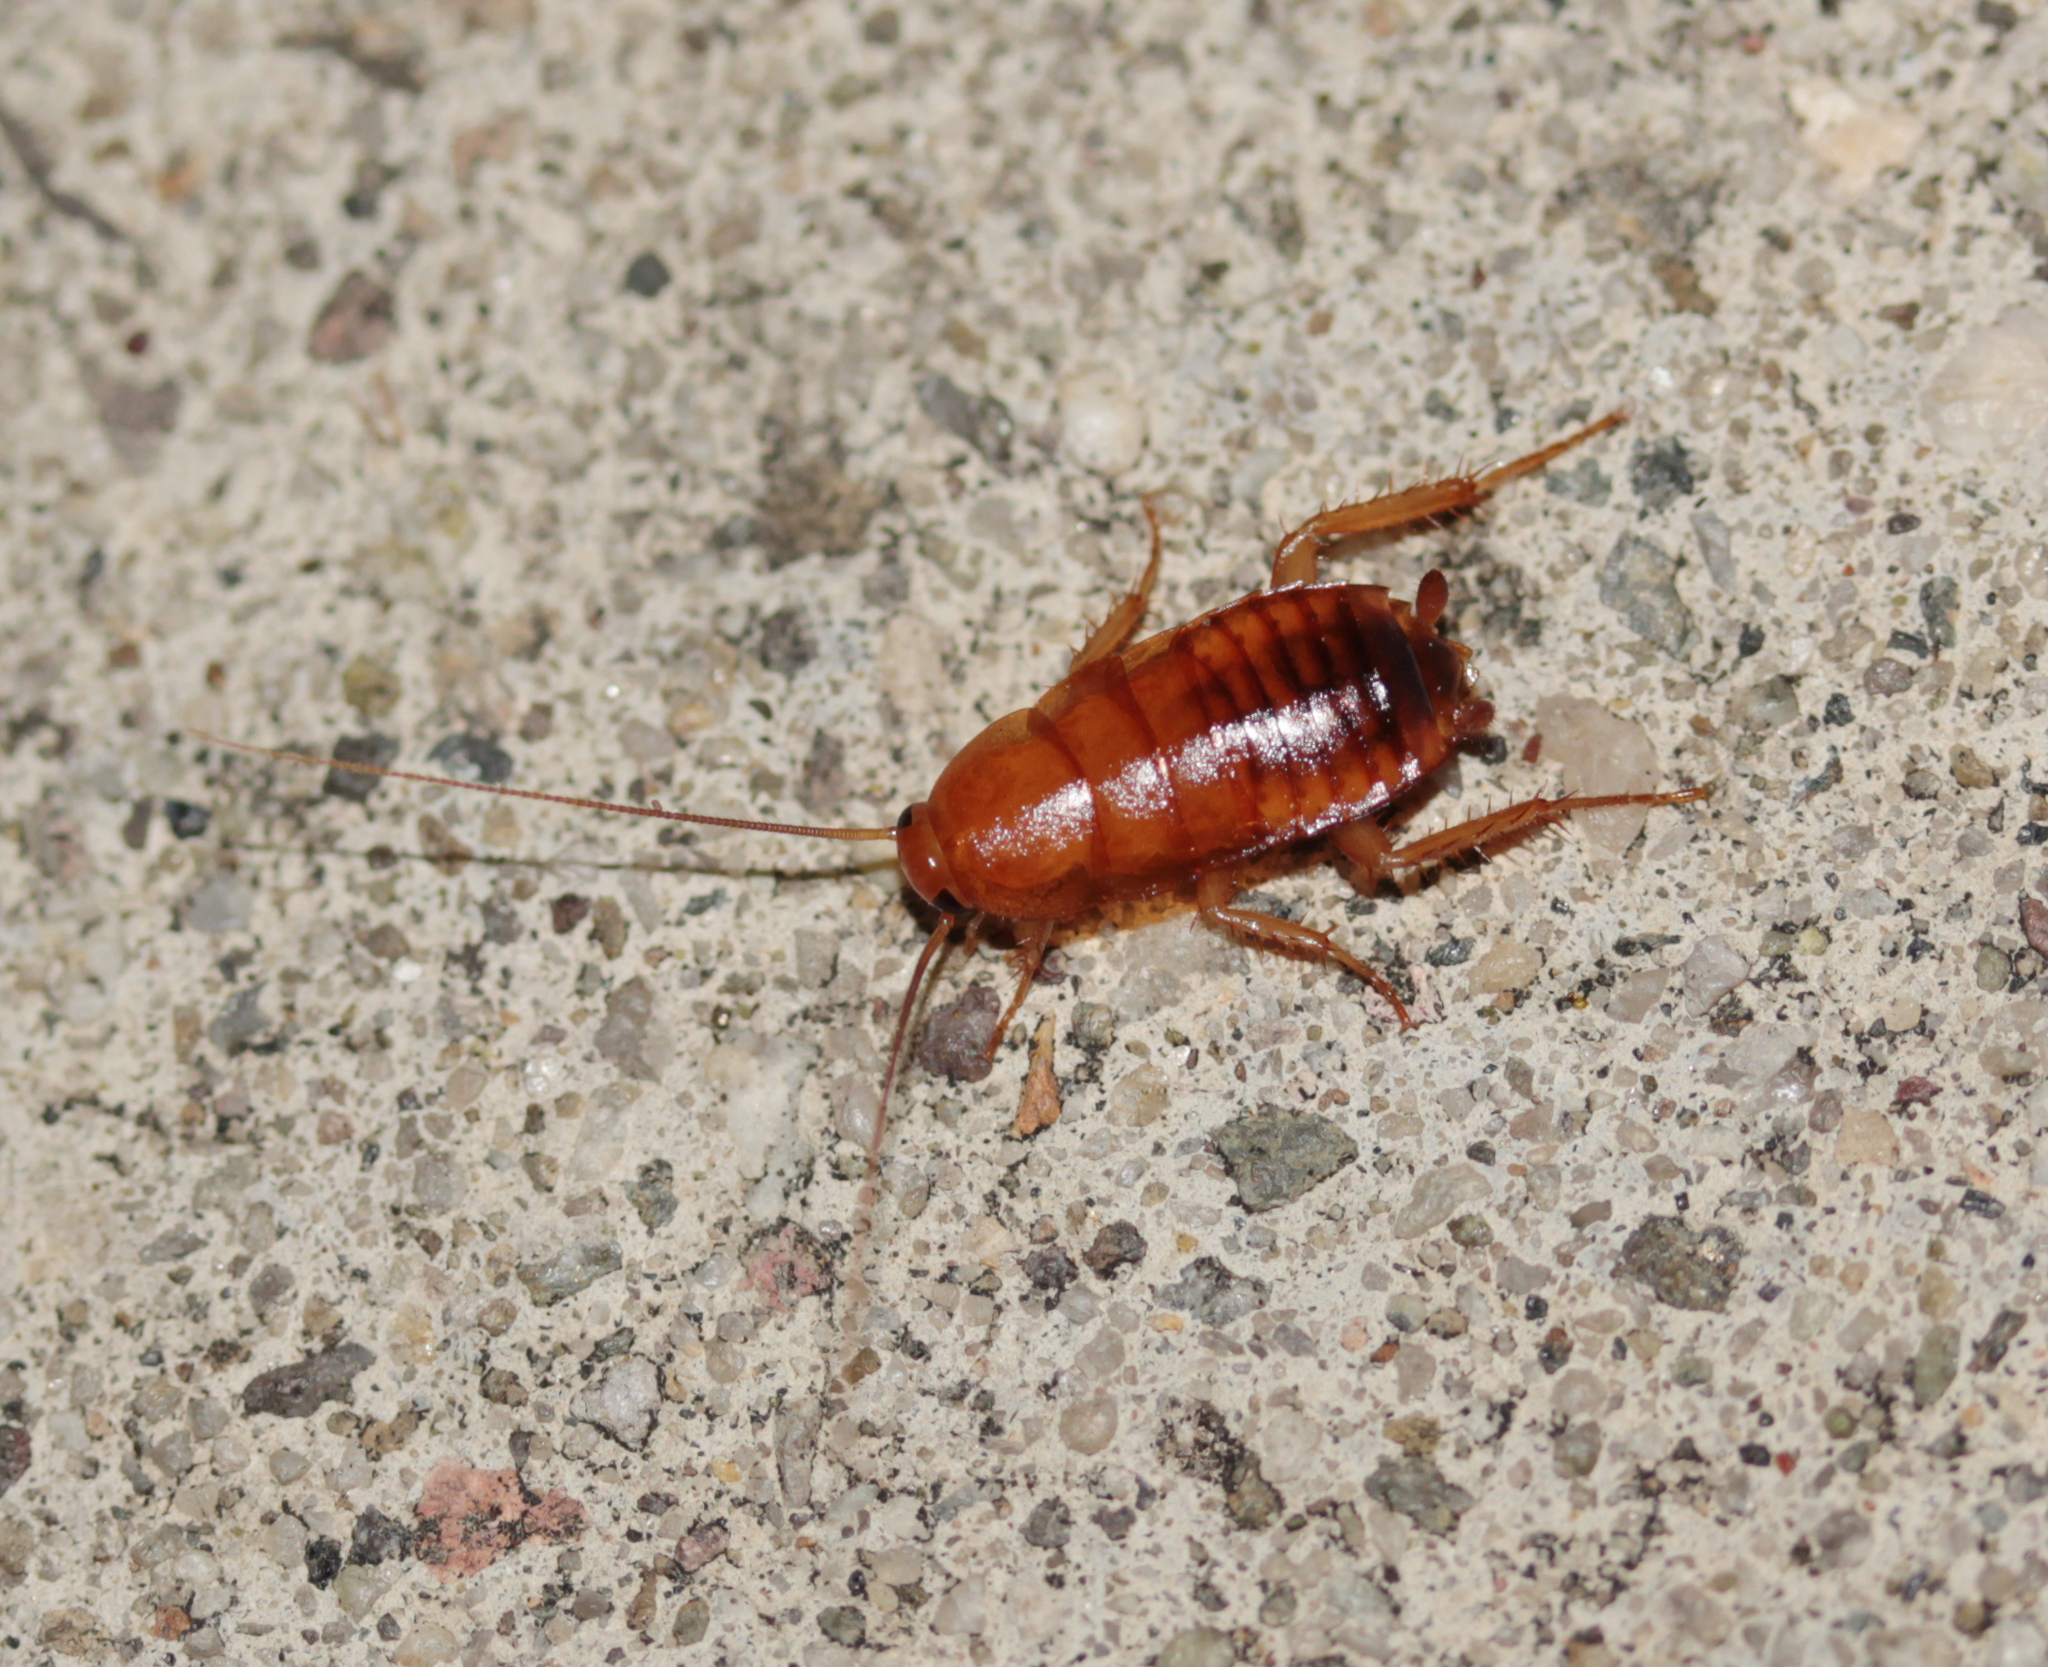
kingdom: Animalia
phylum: Arthropoda
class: Insecta
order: Blattodea
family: Blattidae
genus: Periplaneta
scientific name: Periplaneta lateralis
